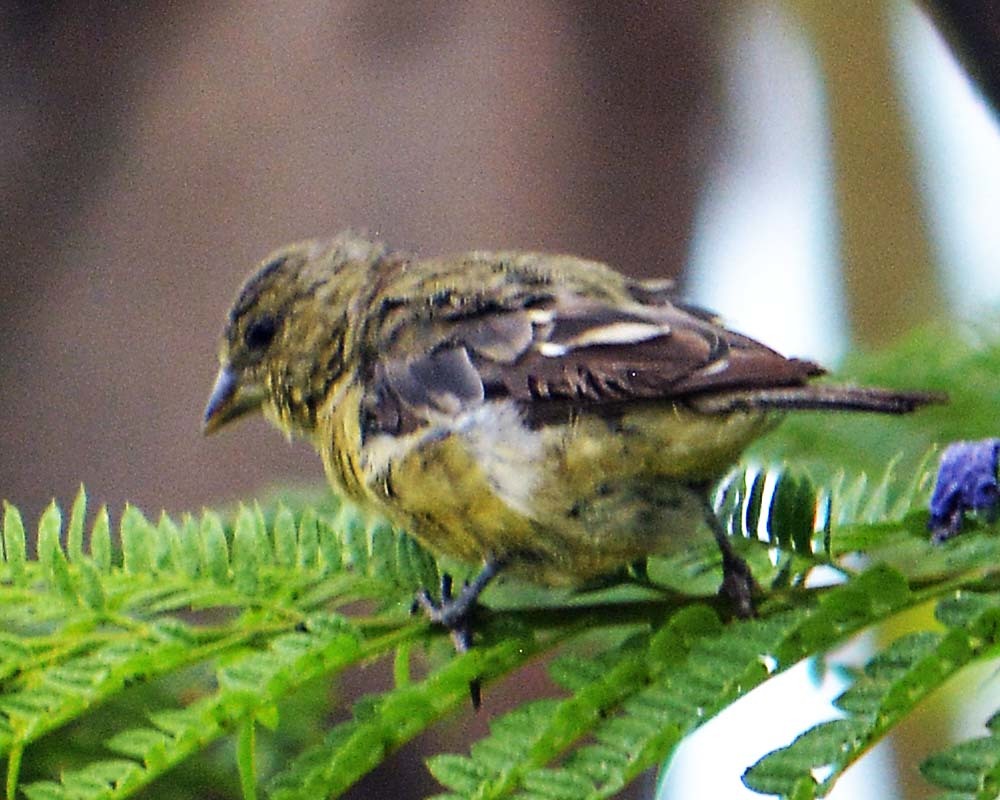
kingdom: Animalia
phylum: Chordata
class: Aves
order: Passeriformes
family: Fringillidae
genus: Spinus
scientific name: Spinus psaltria
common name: Lesser goldfinch
